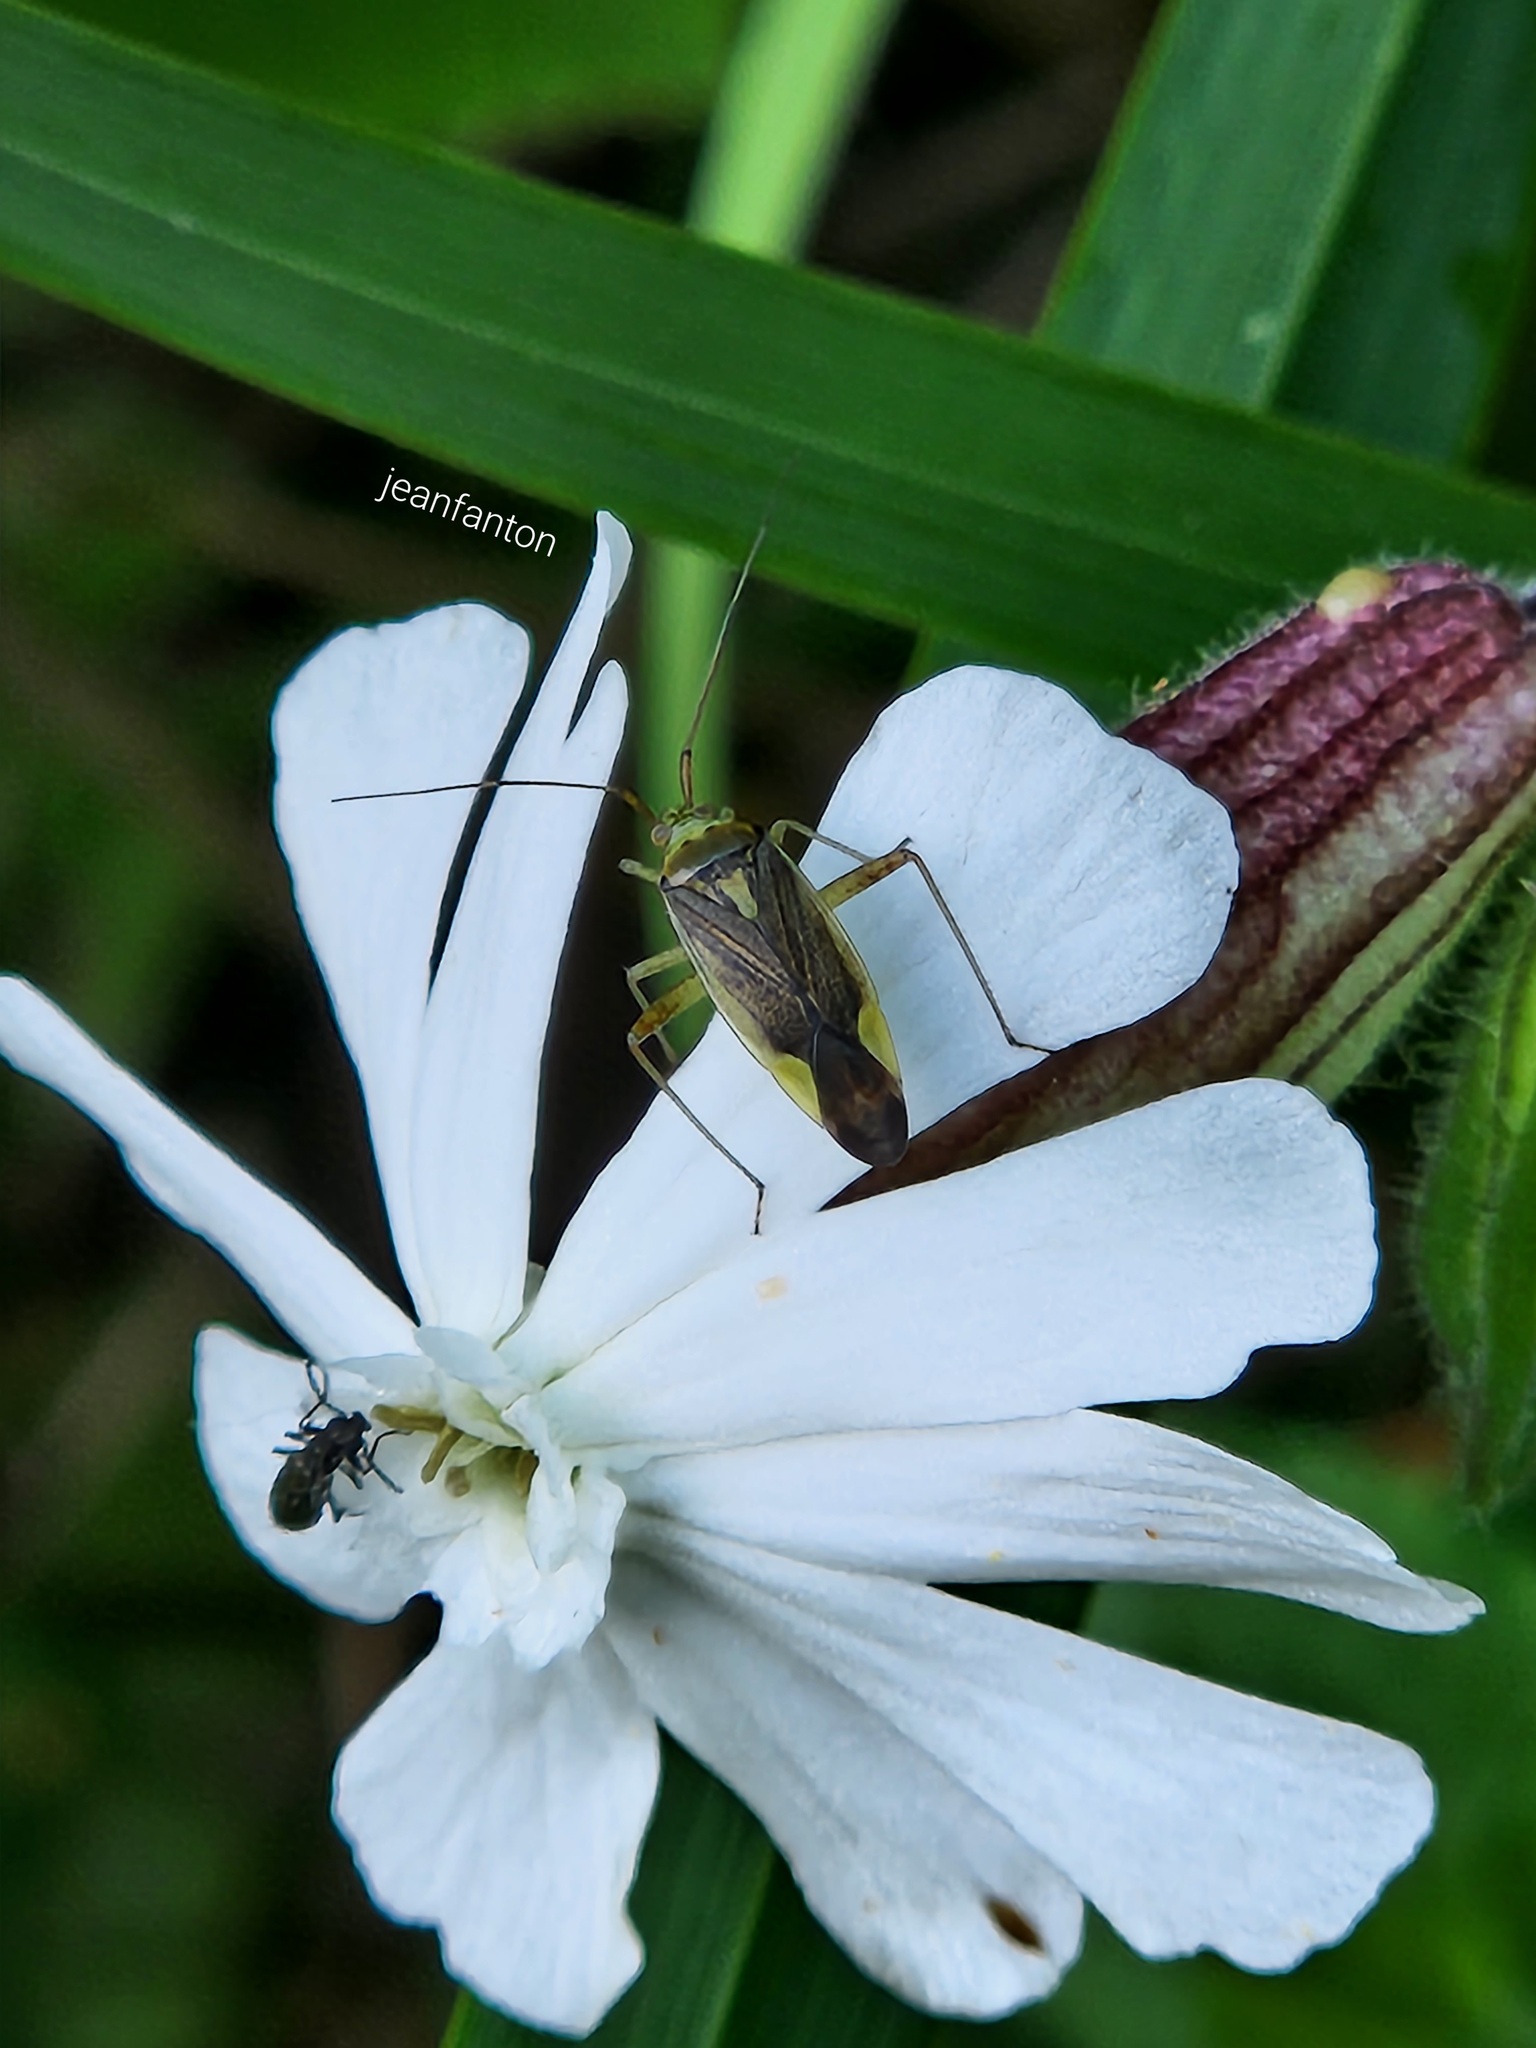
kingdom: Animalia
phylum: Arthropoda
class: Insecta
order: Hemiptera
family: Miridae
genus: Closterotomus
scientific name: Closterotomus trivialis
